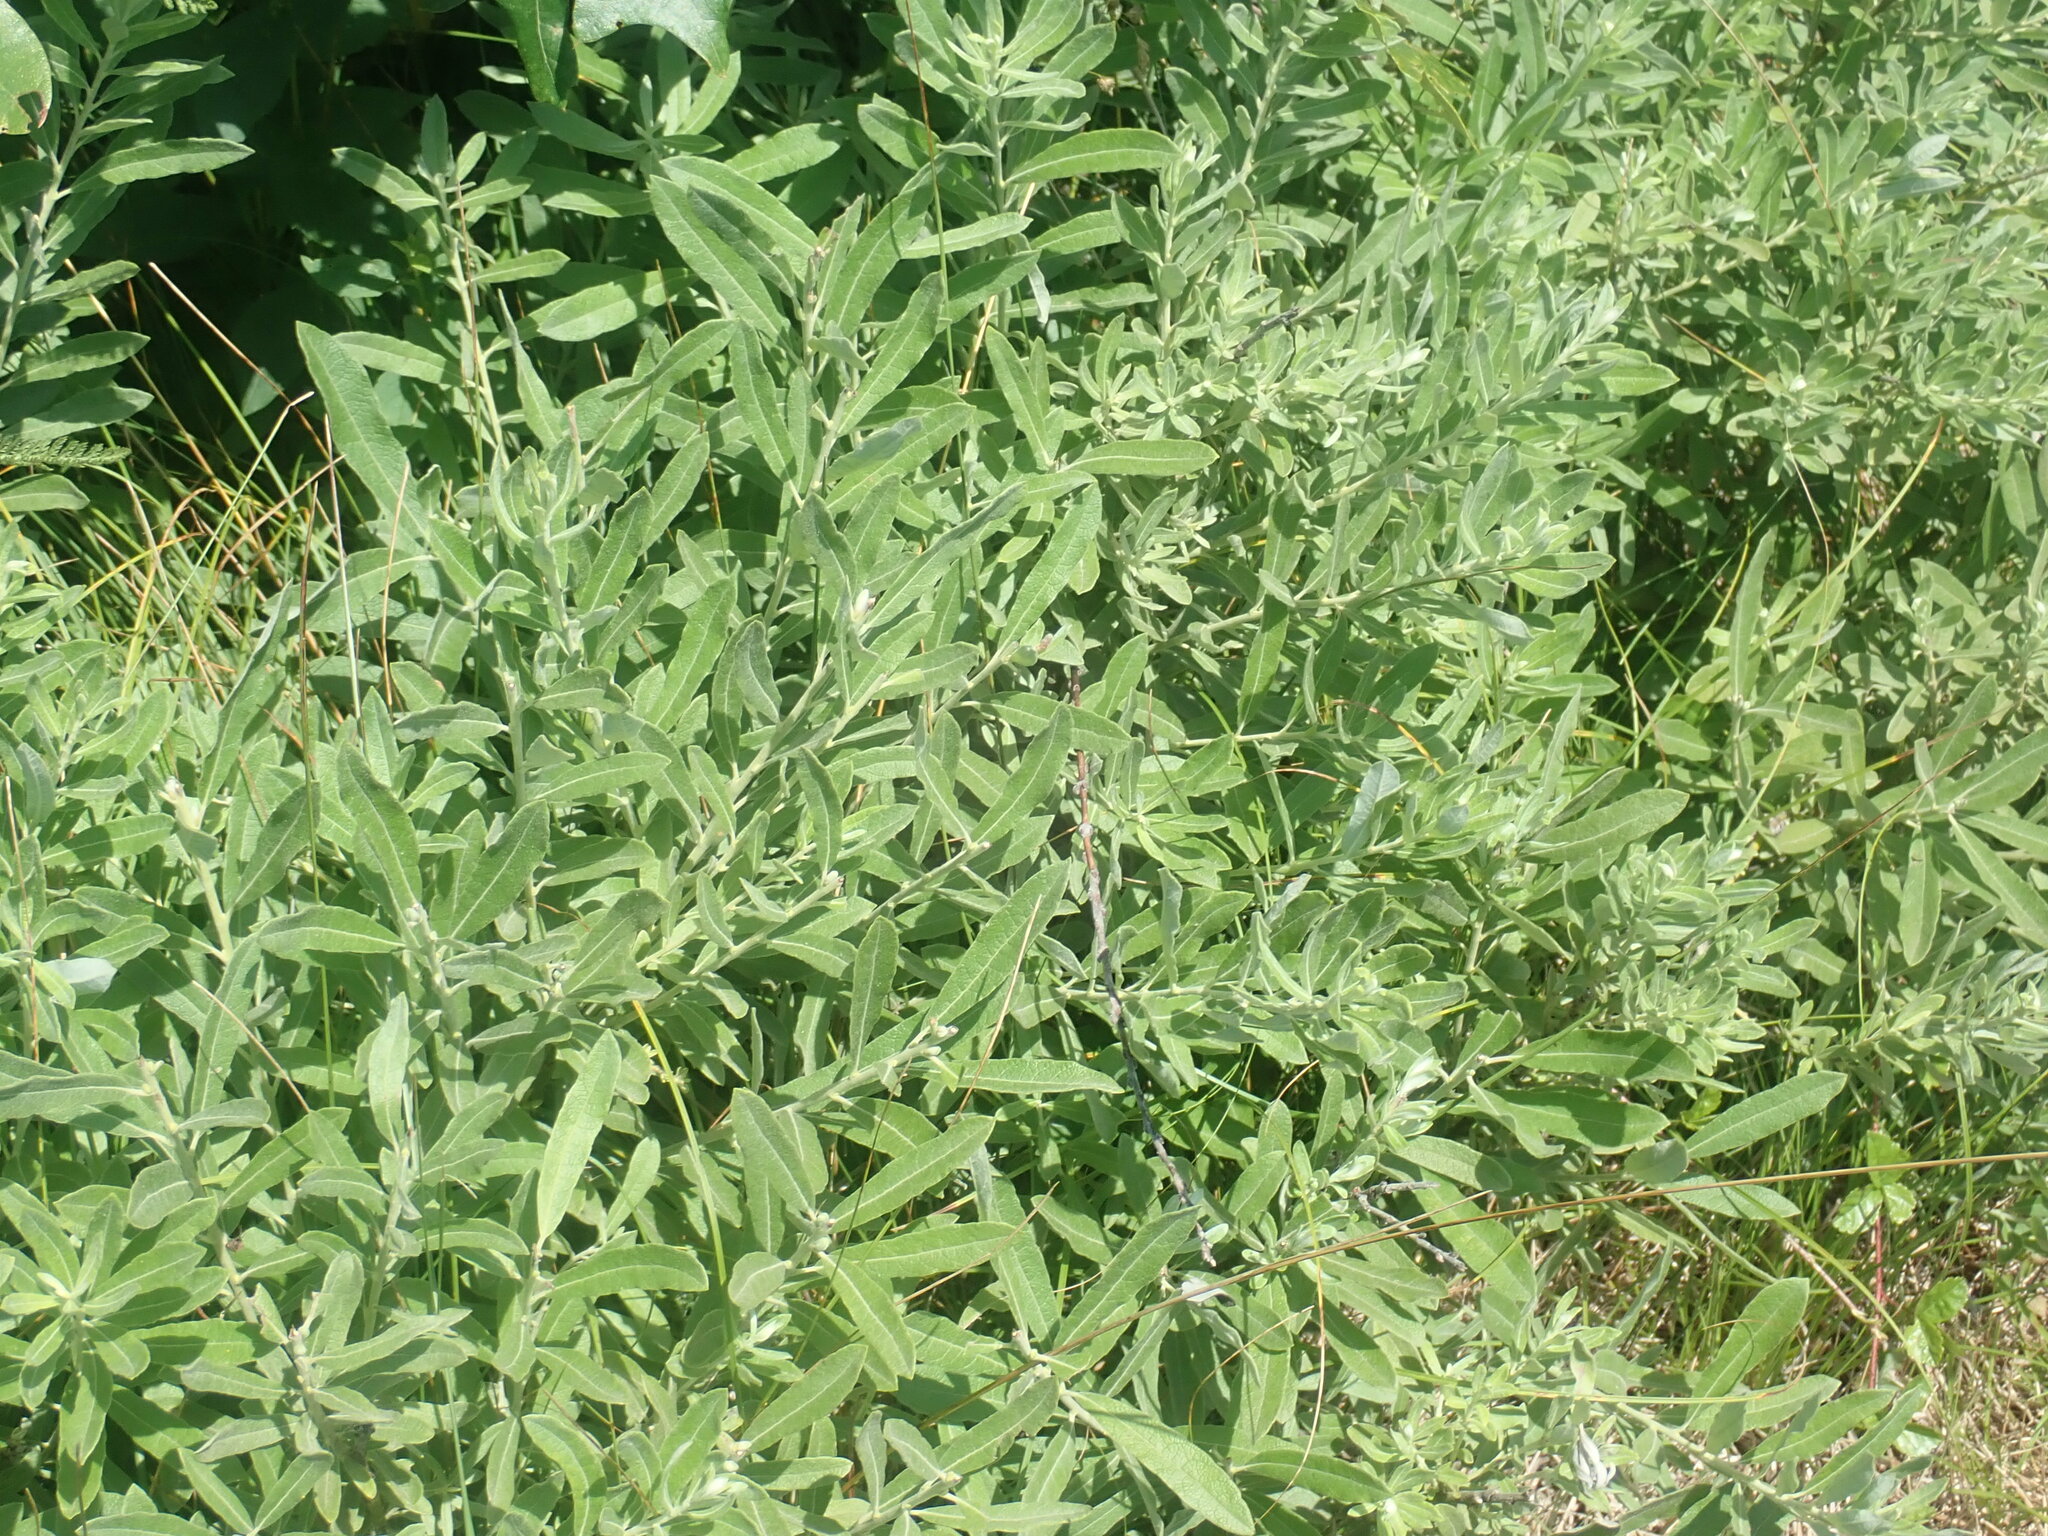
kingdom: Plantae
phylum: Tracheophyta
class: Magnoliopsida
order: Malpighiales
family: Salicaceae
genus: Salix
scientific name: Salix humilis
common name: Prairie willow
